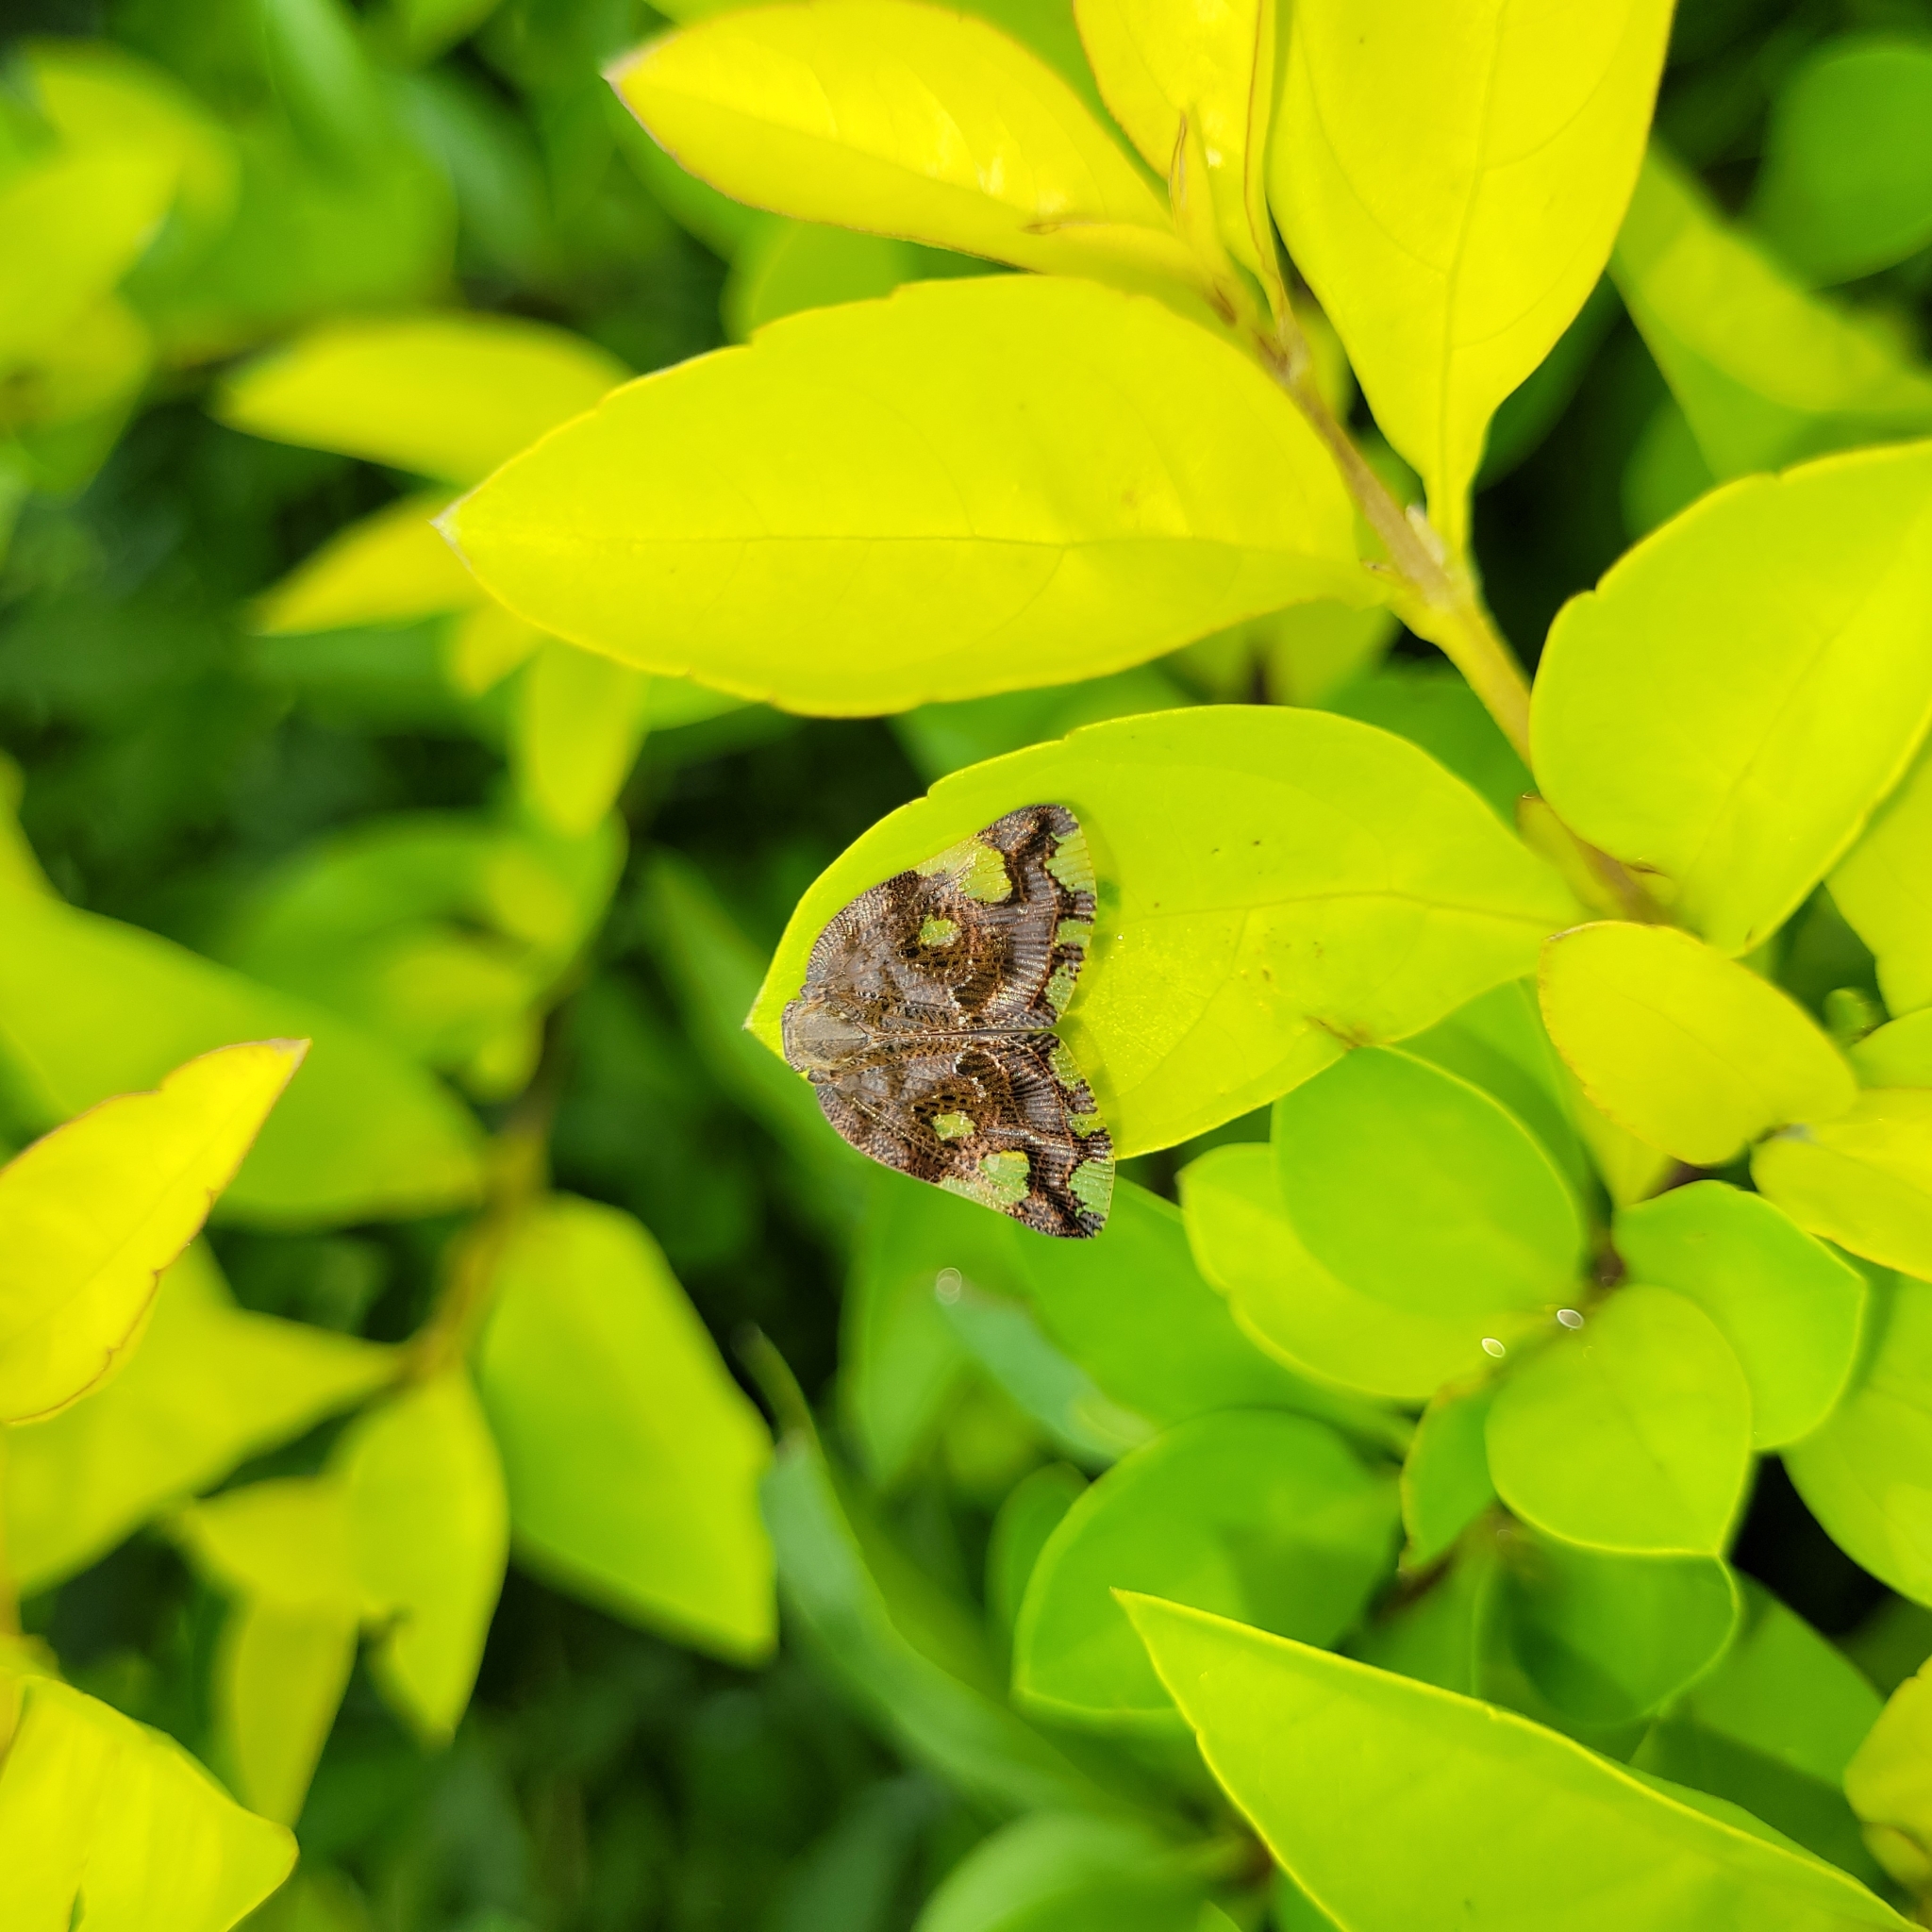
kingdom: Animalia
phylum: Arthropoda
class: Insecta
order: Hemiptera
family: Ricaniidae
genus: Ricania
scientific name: Ricania speculum
